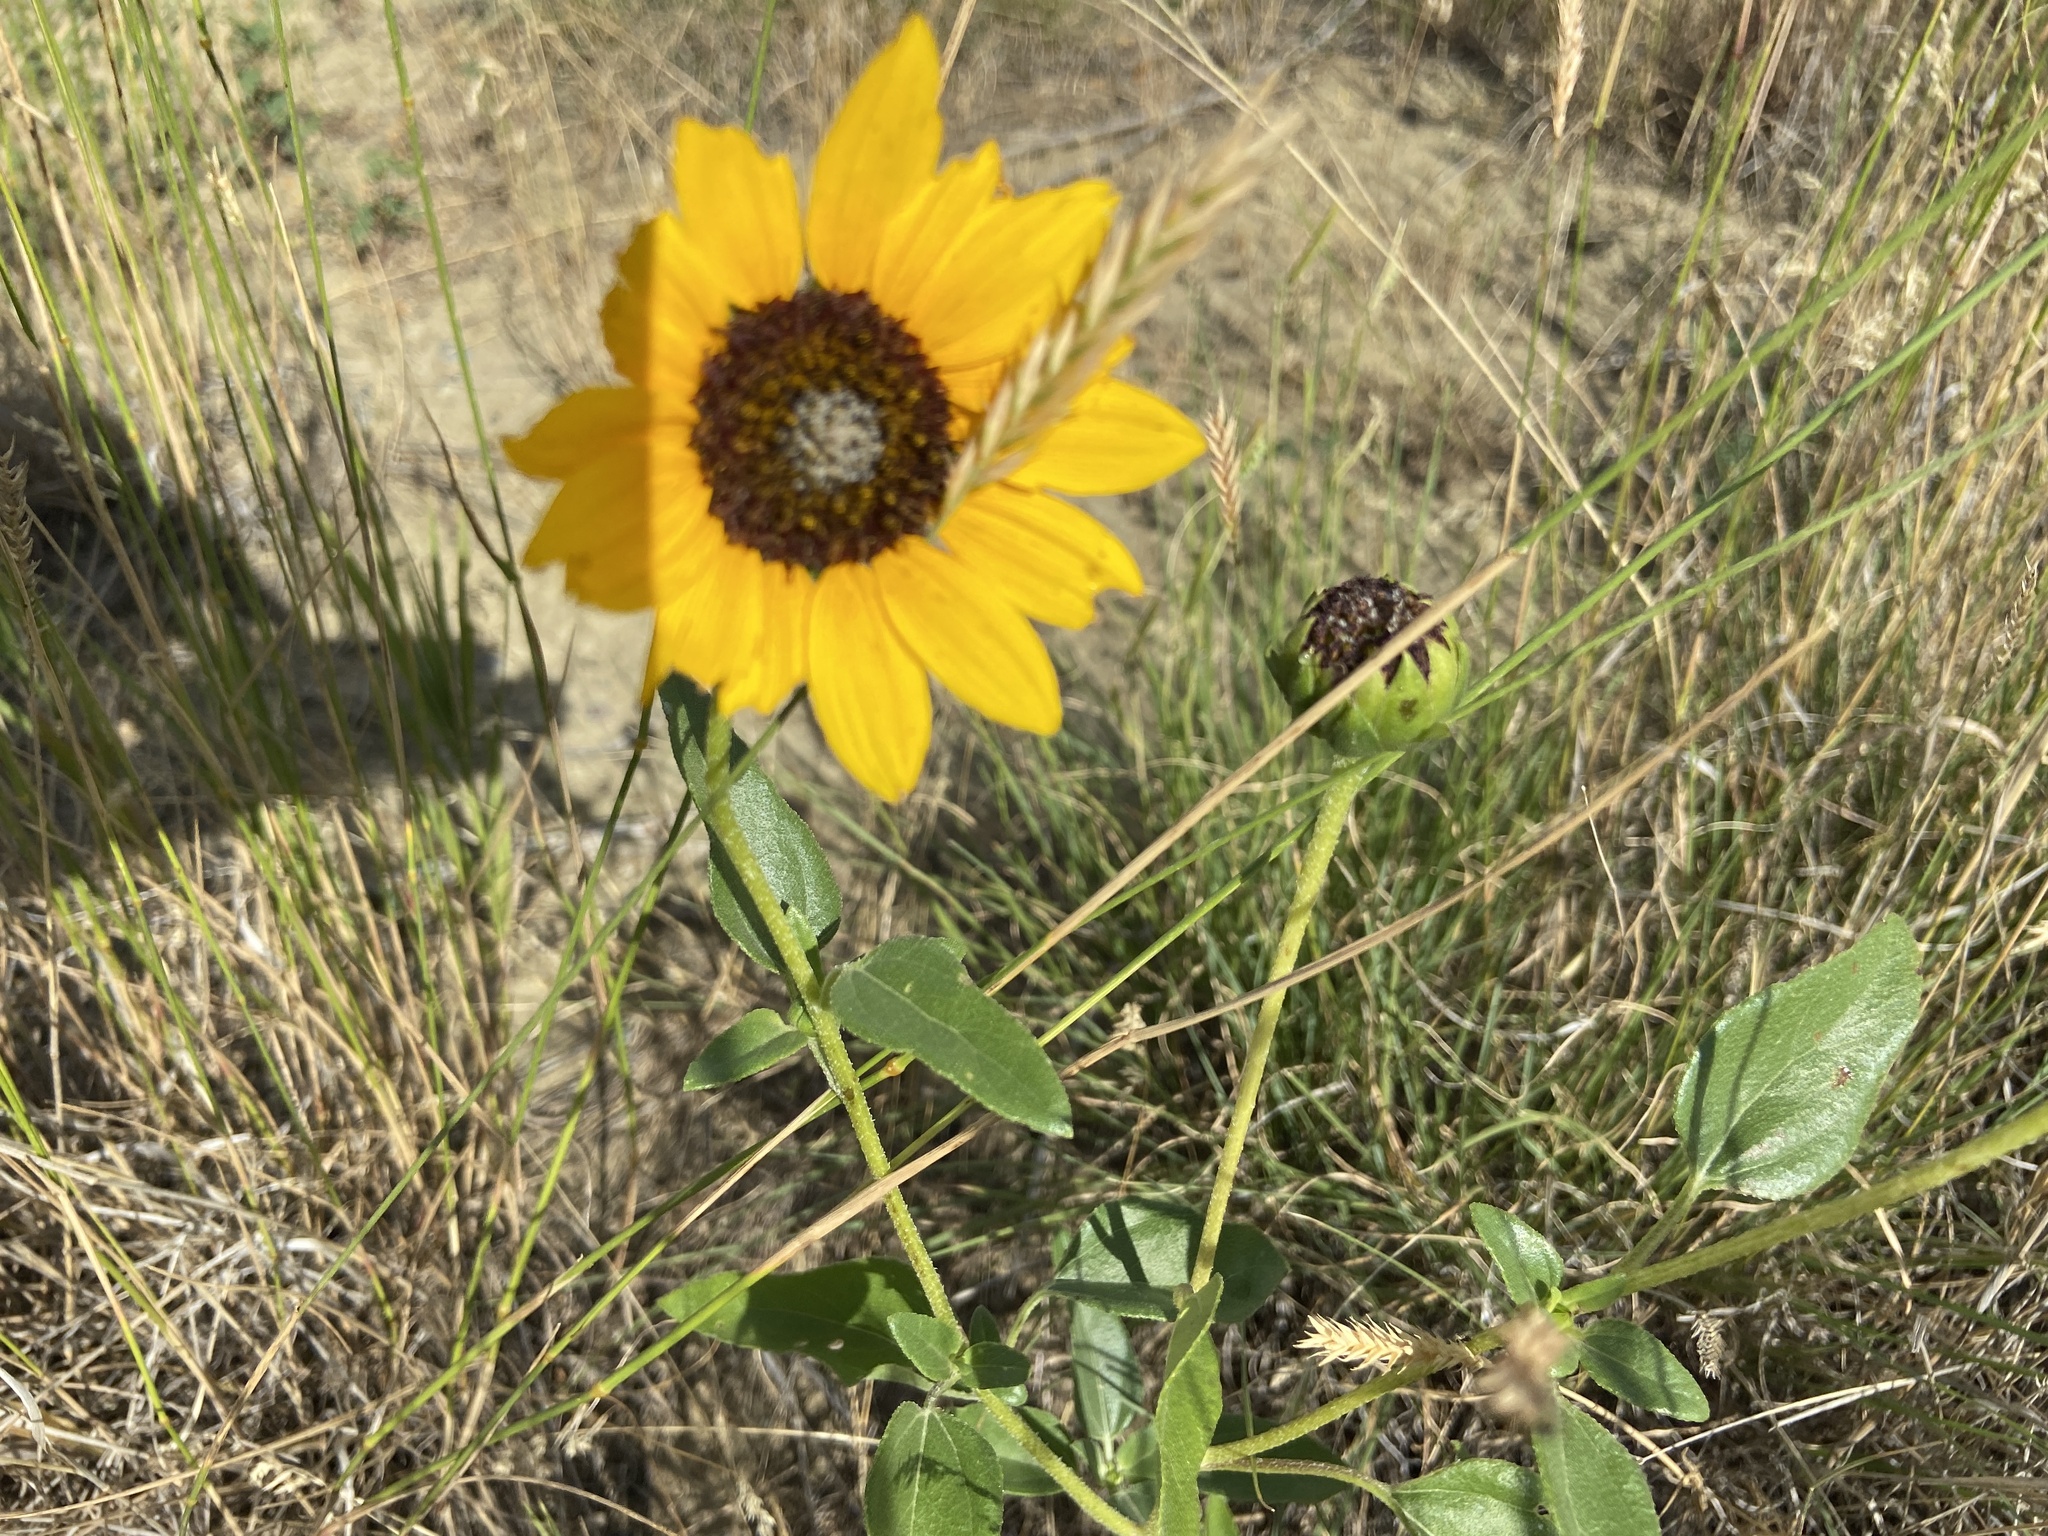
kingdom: Plantae
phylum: Tracheophyta
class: Magnoliopsida
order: Asterales
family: Asteraceae
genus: Helianthus
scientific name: Helianthus petiolaris
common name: Lesser sunflower
